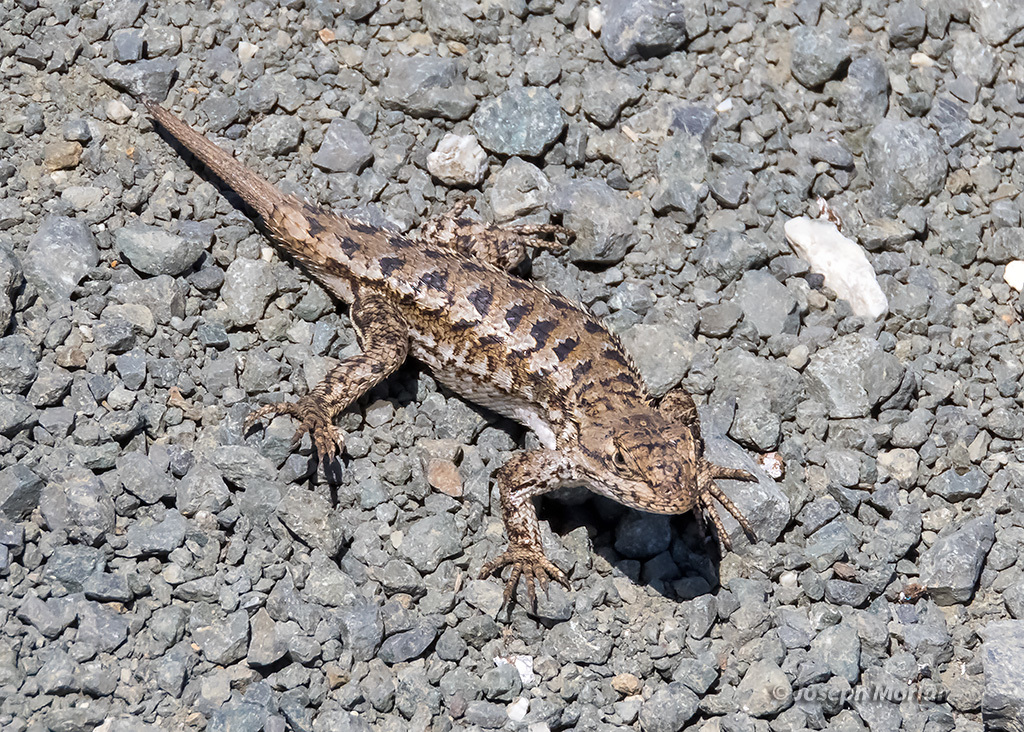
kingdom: Animalia
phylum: Chordata
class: Squamata
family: Phrynosomatidae
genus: Sceloporus
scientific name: Sceloporus occidentalis
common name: Western fence lizard
